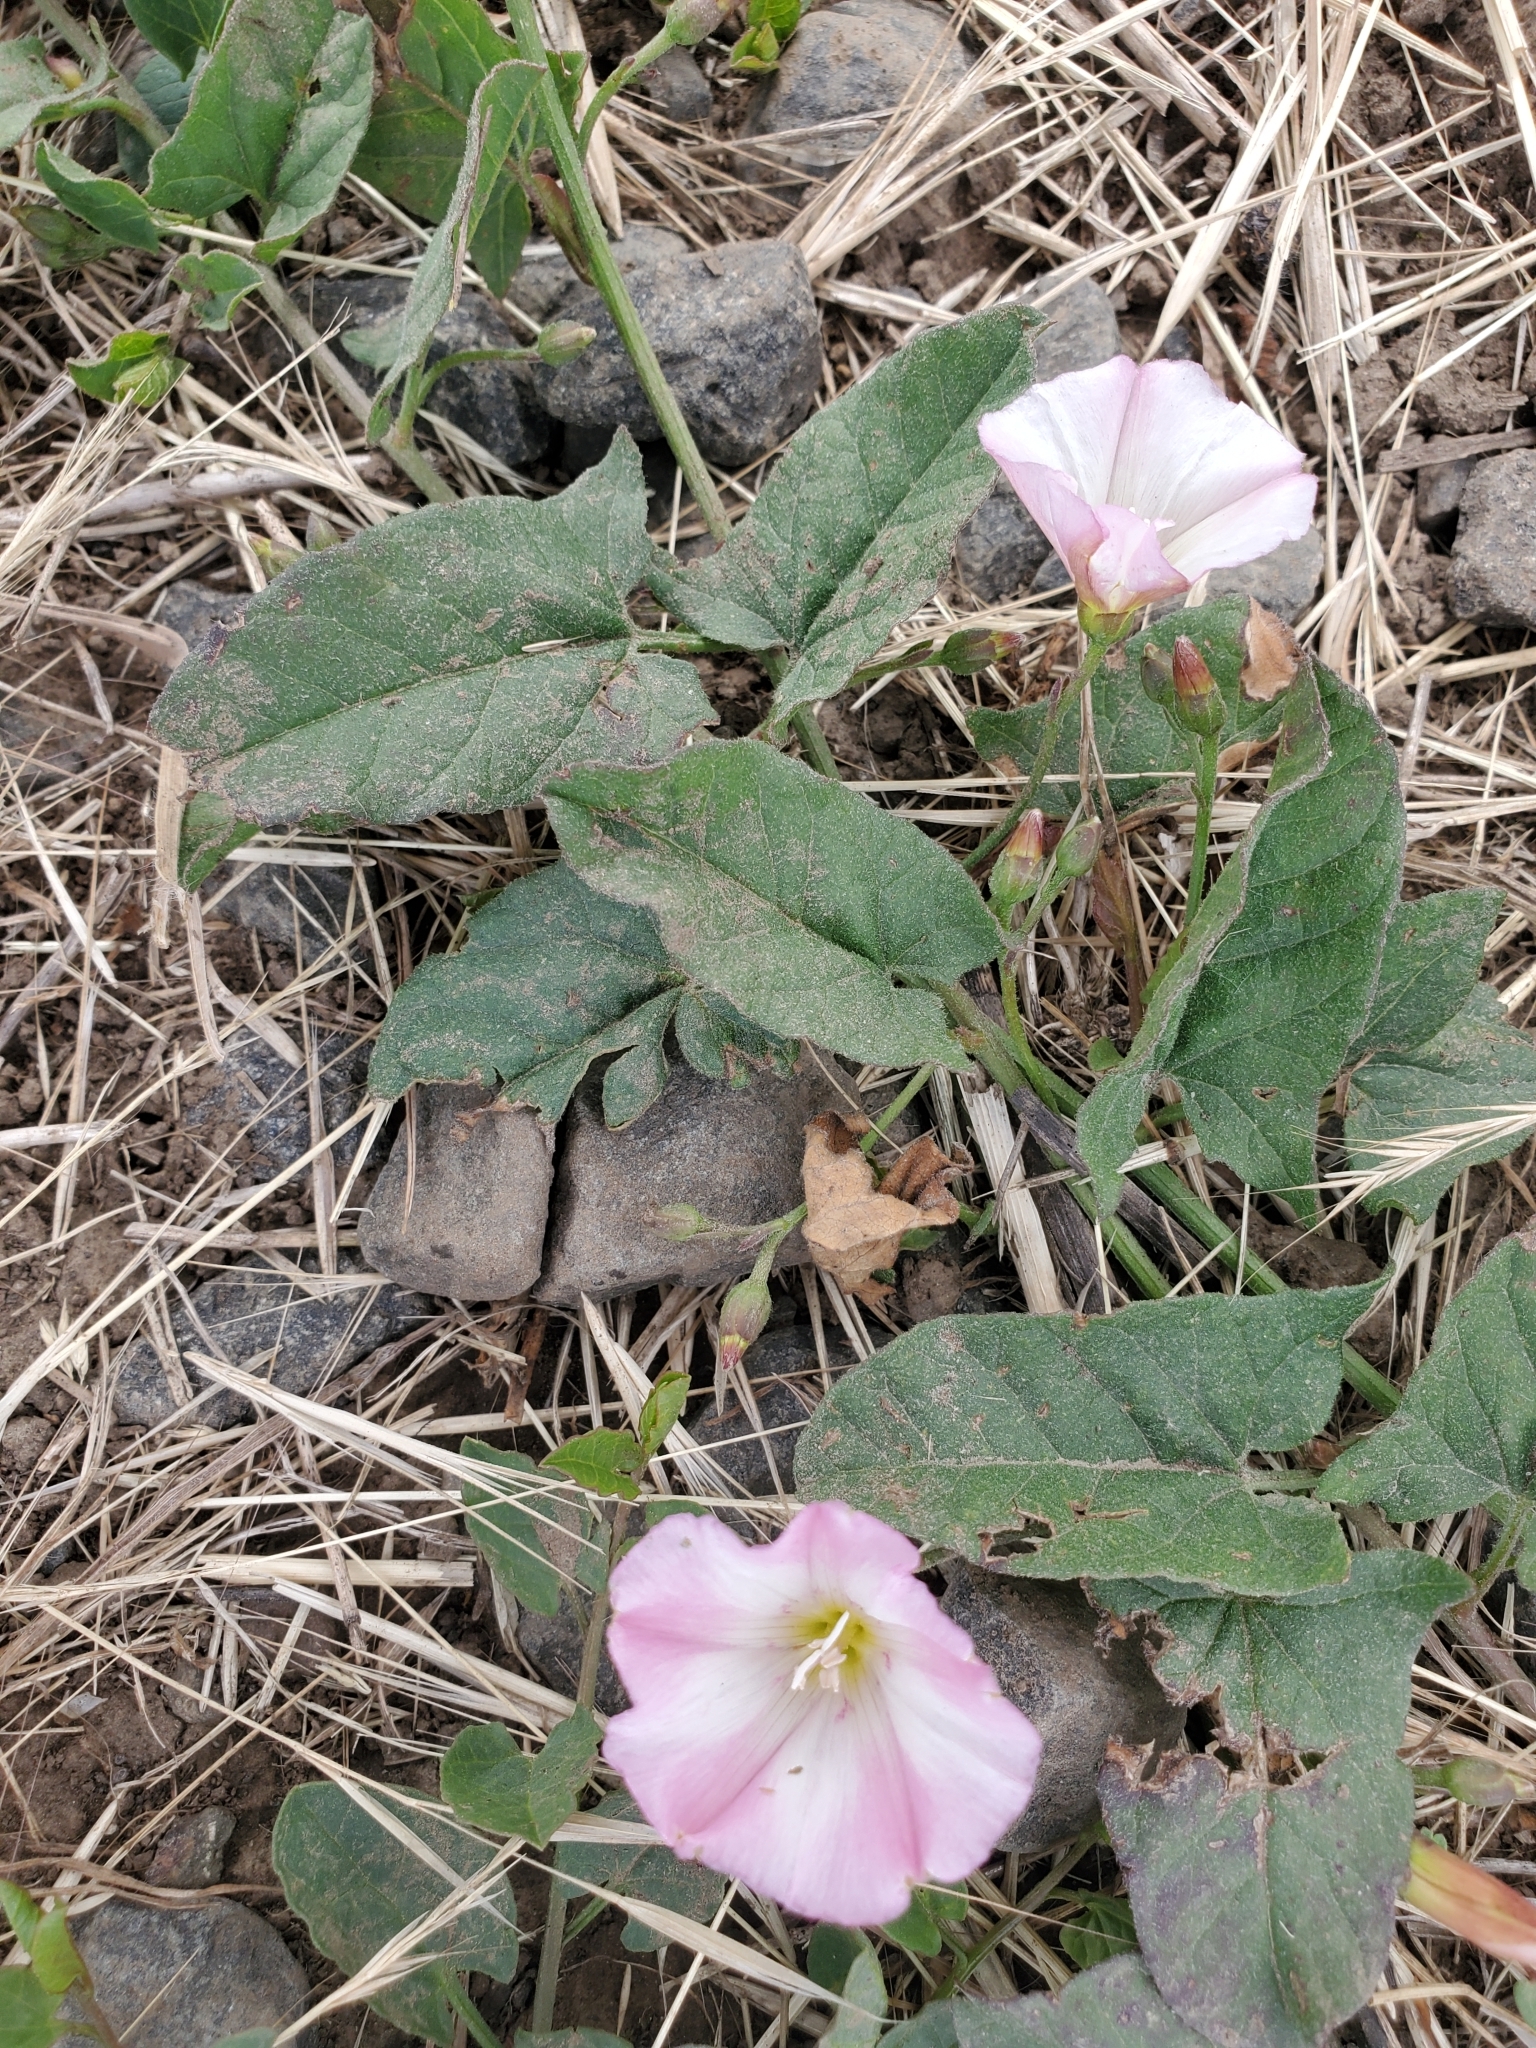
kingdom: Plantae
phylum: Tracheophyta
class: Magnoliopsida
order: Solanales
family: Convolvulaceae
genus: Convolvulus
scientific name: Convolvulus arvensis
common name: Field bindweed
